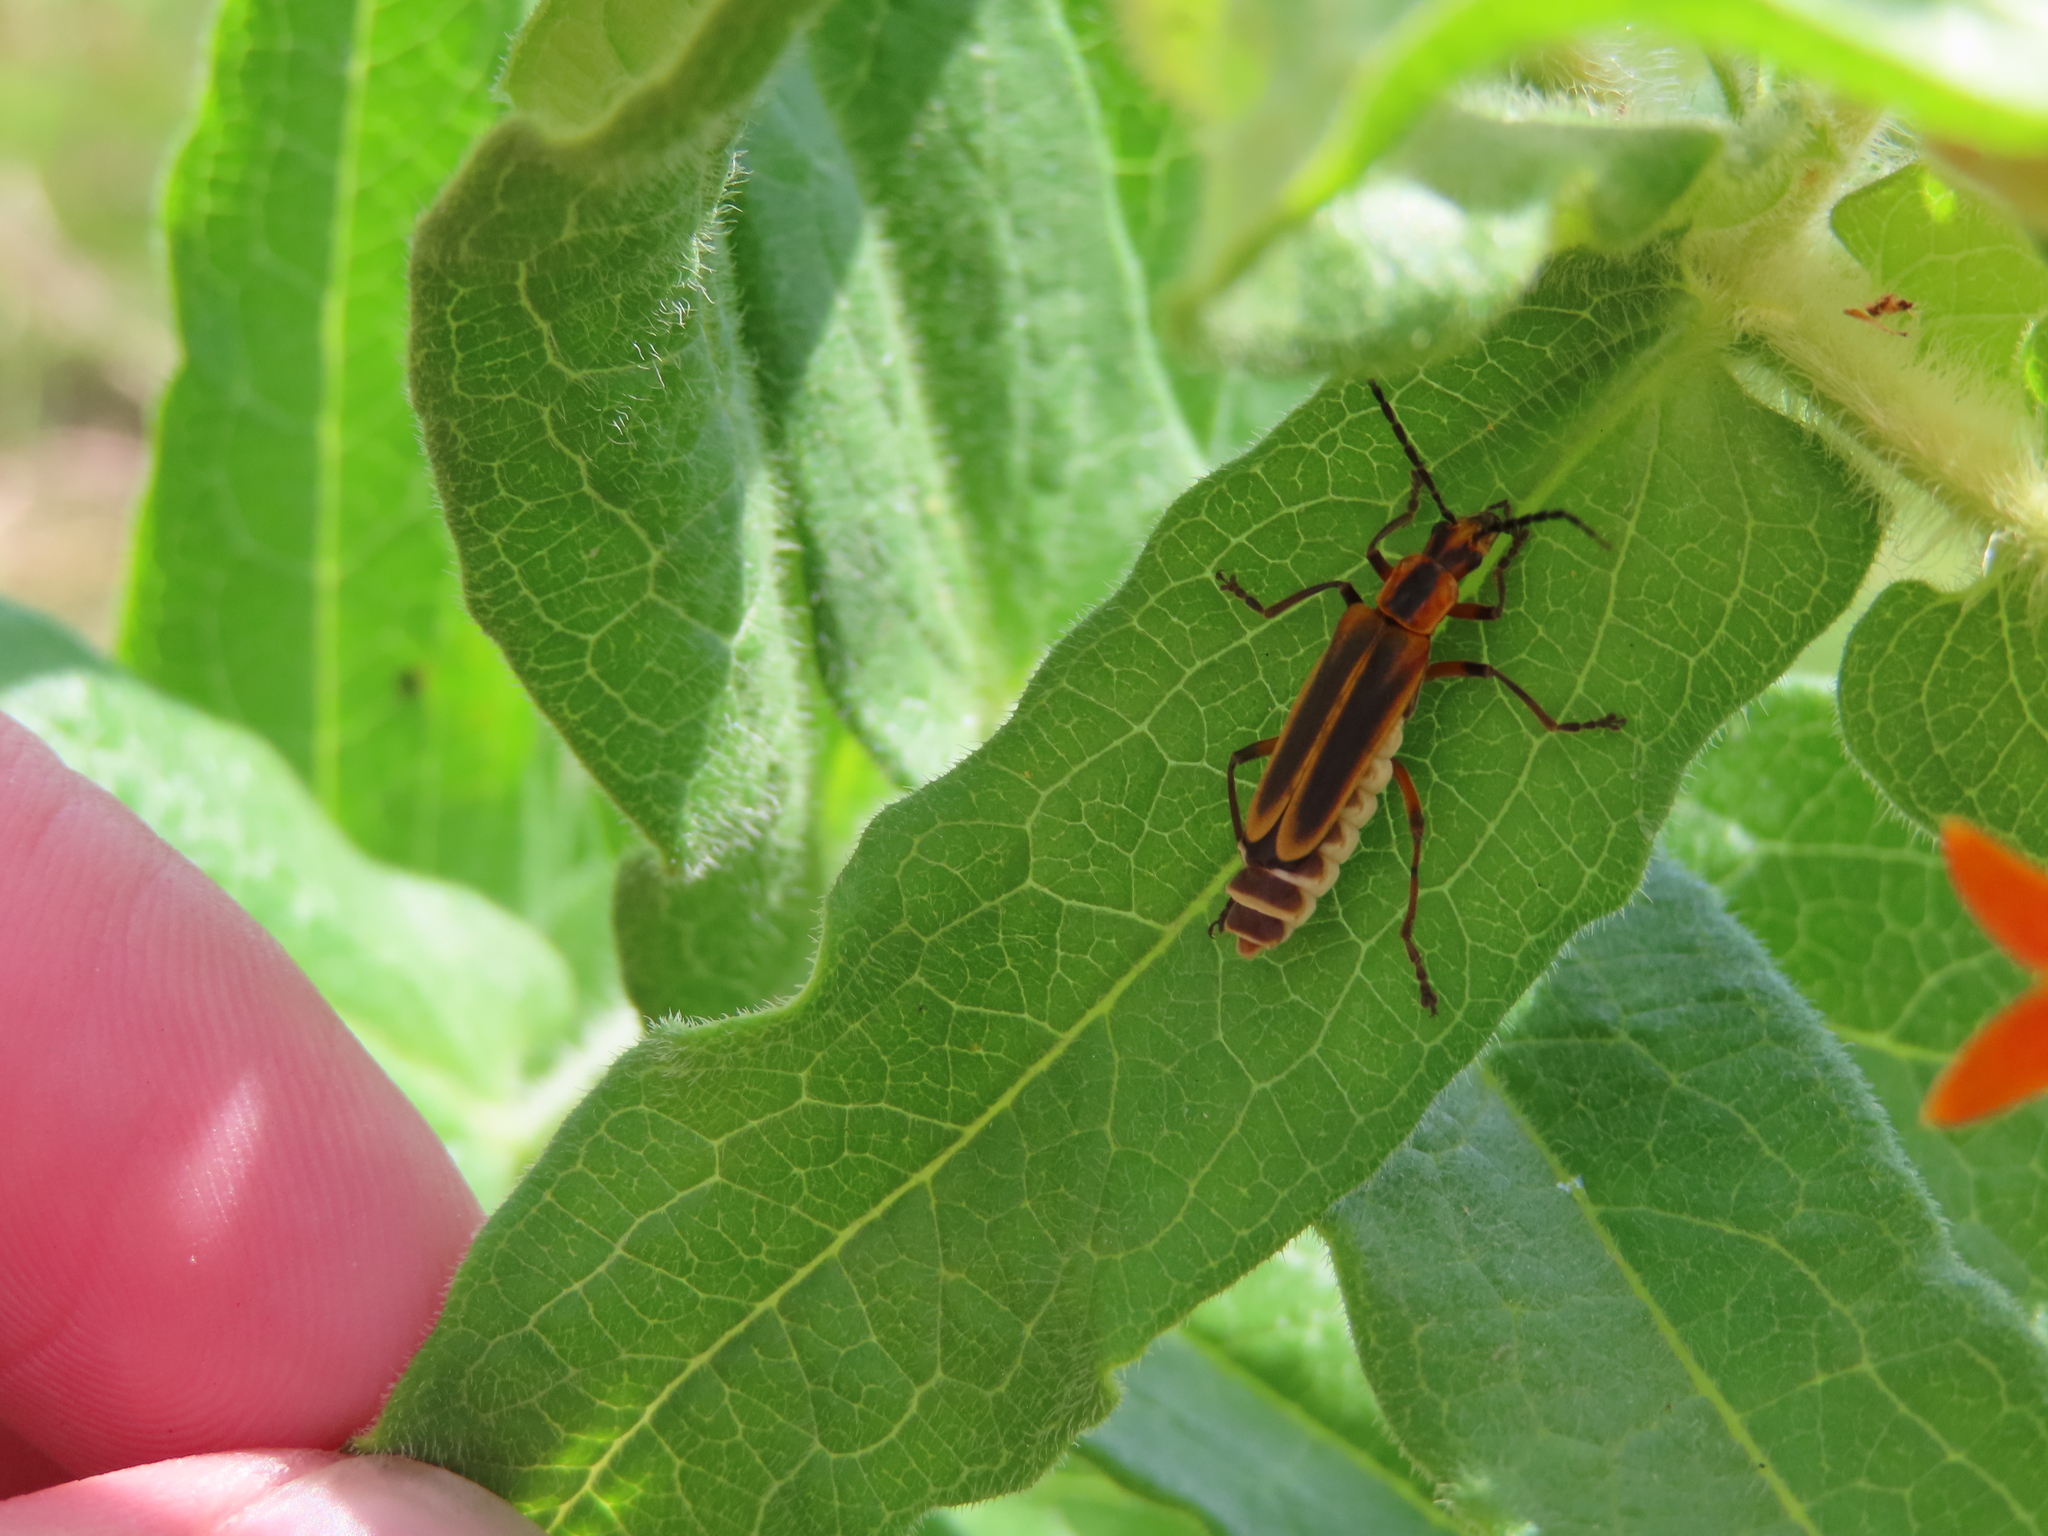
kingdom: Animalia
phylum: Arthropoda
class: Insecta
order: Coleoptera
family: Cantharidae
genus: Chauliognathus
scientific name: Chauliognathus marginatus
